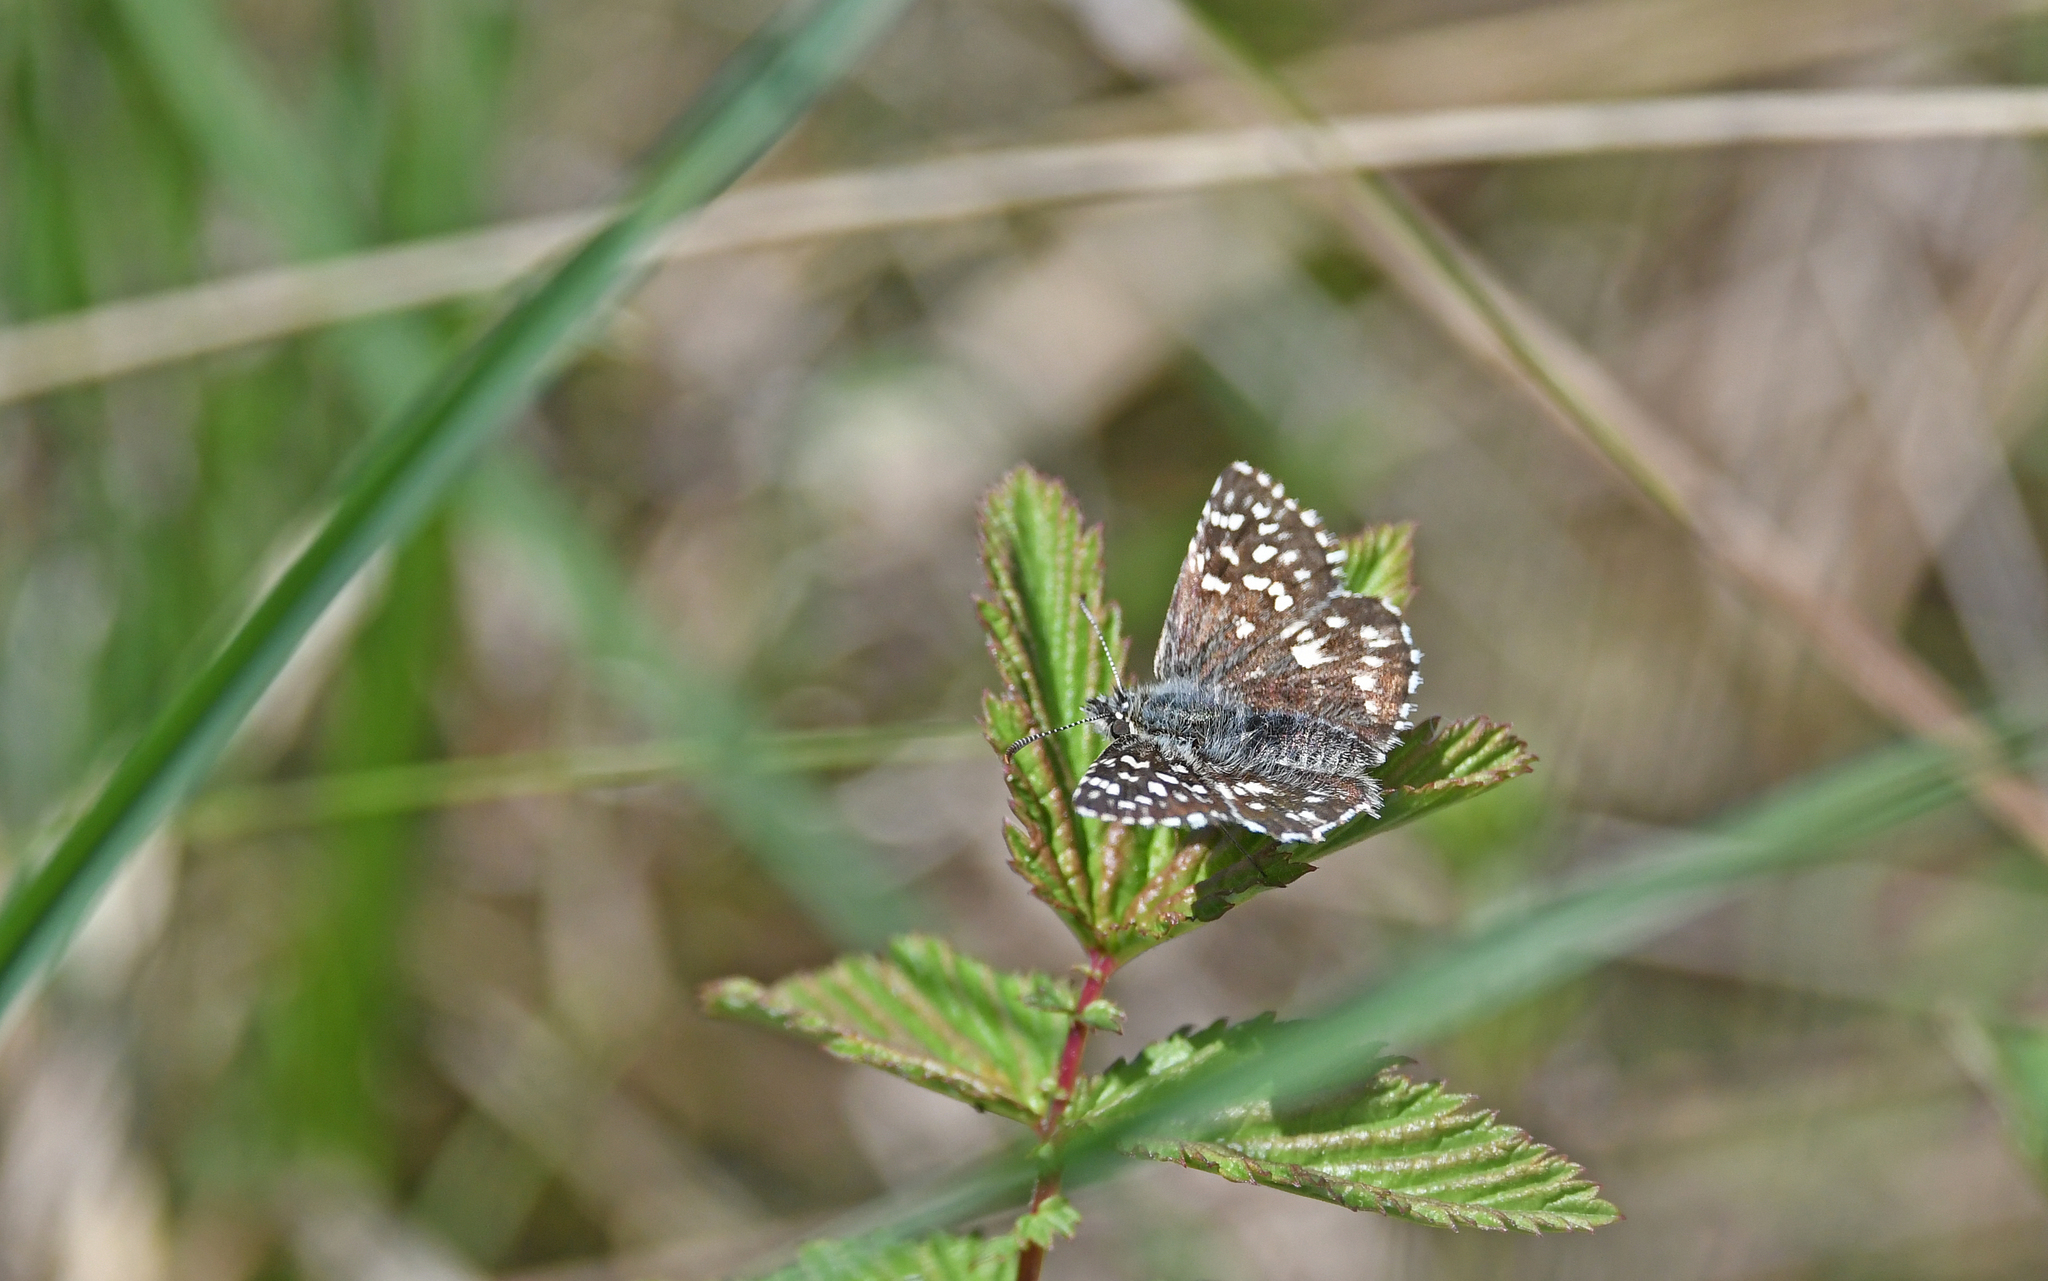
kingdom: Animalia
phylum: Arthropoda
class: Insecta
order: Lepidoptera
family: Hesperiidae
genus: Pyrgus
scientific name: Pyrgus malvae
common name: Grizzled skipper
